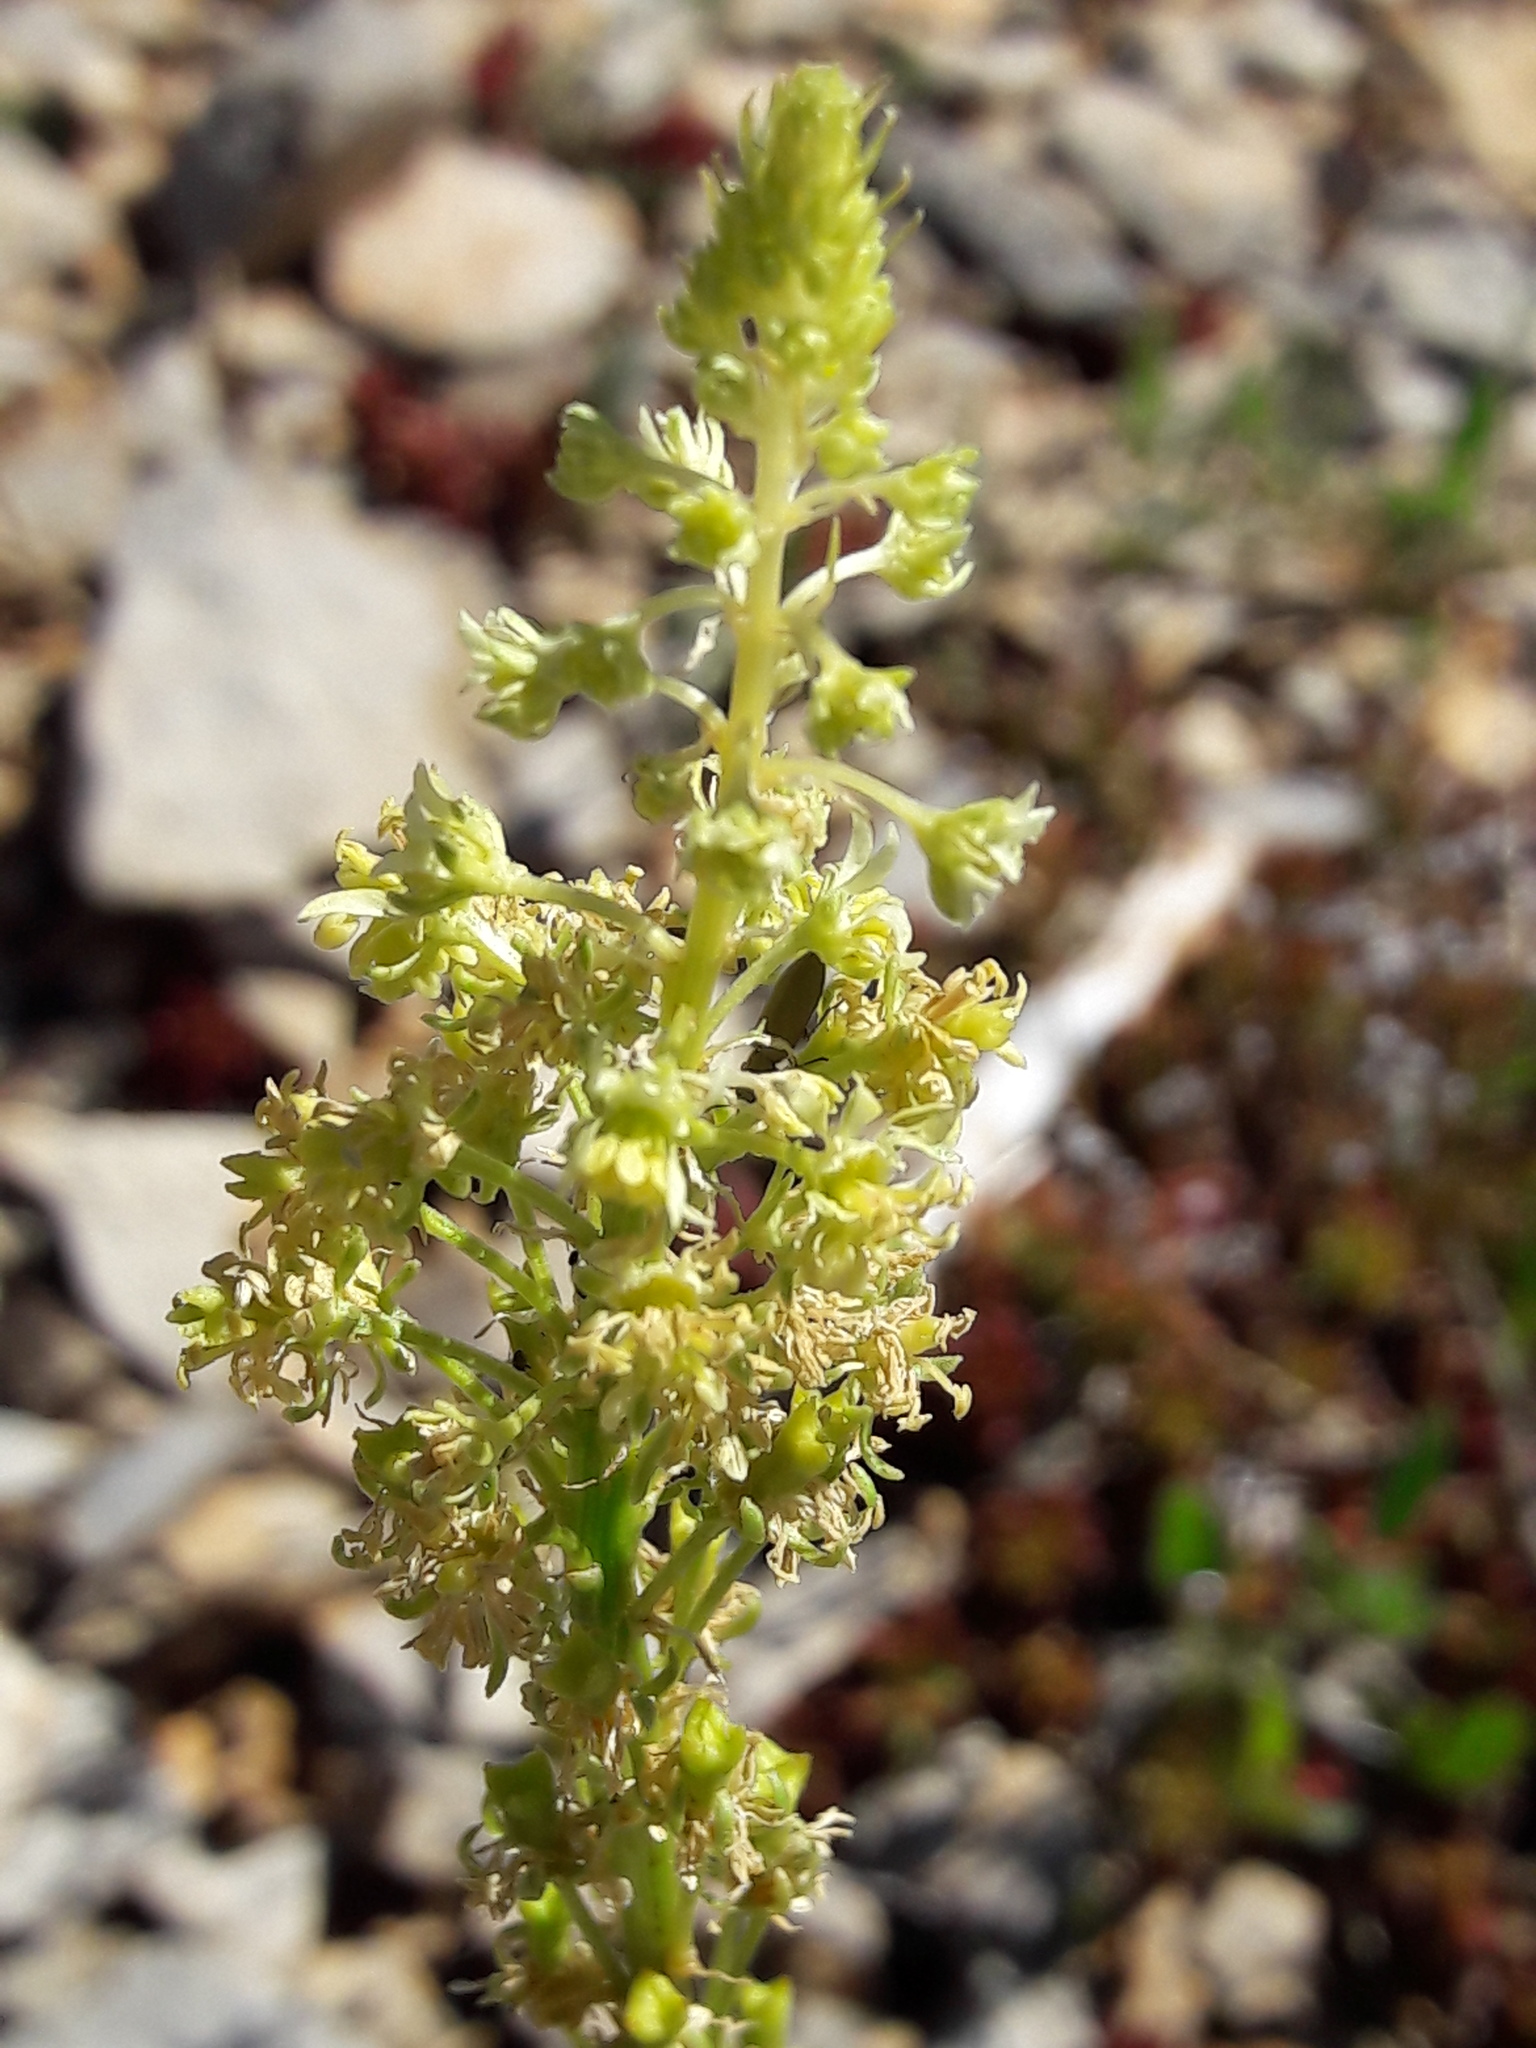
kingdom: Plantae
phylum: Tracheophyta
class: Magnoliopsida
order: Brassicales
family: Resedaceae
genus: Reseda
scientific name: Reseda lutea
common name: Wild mignonette
